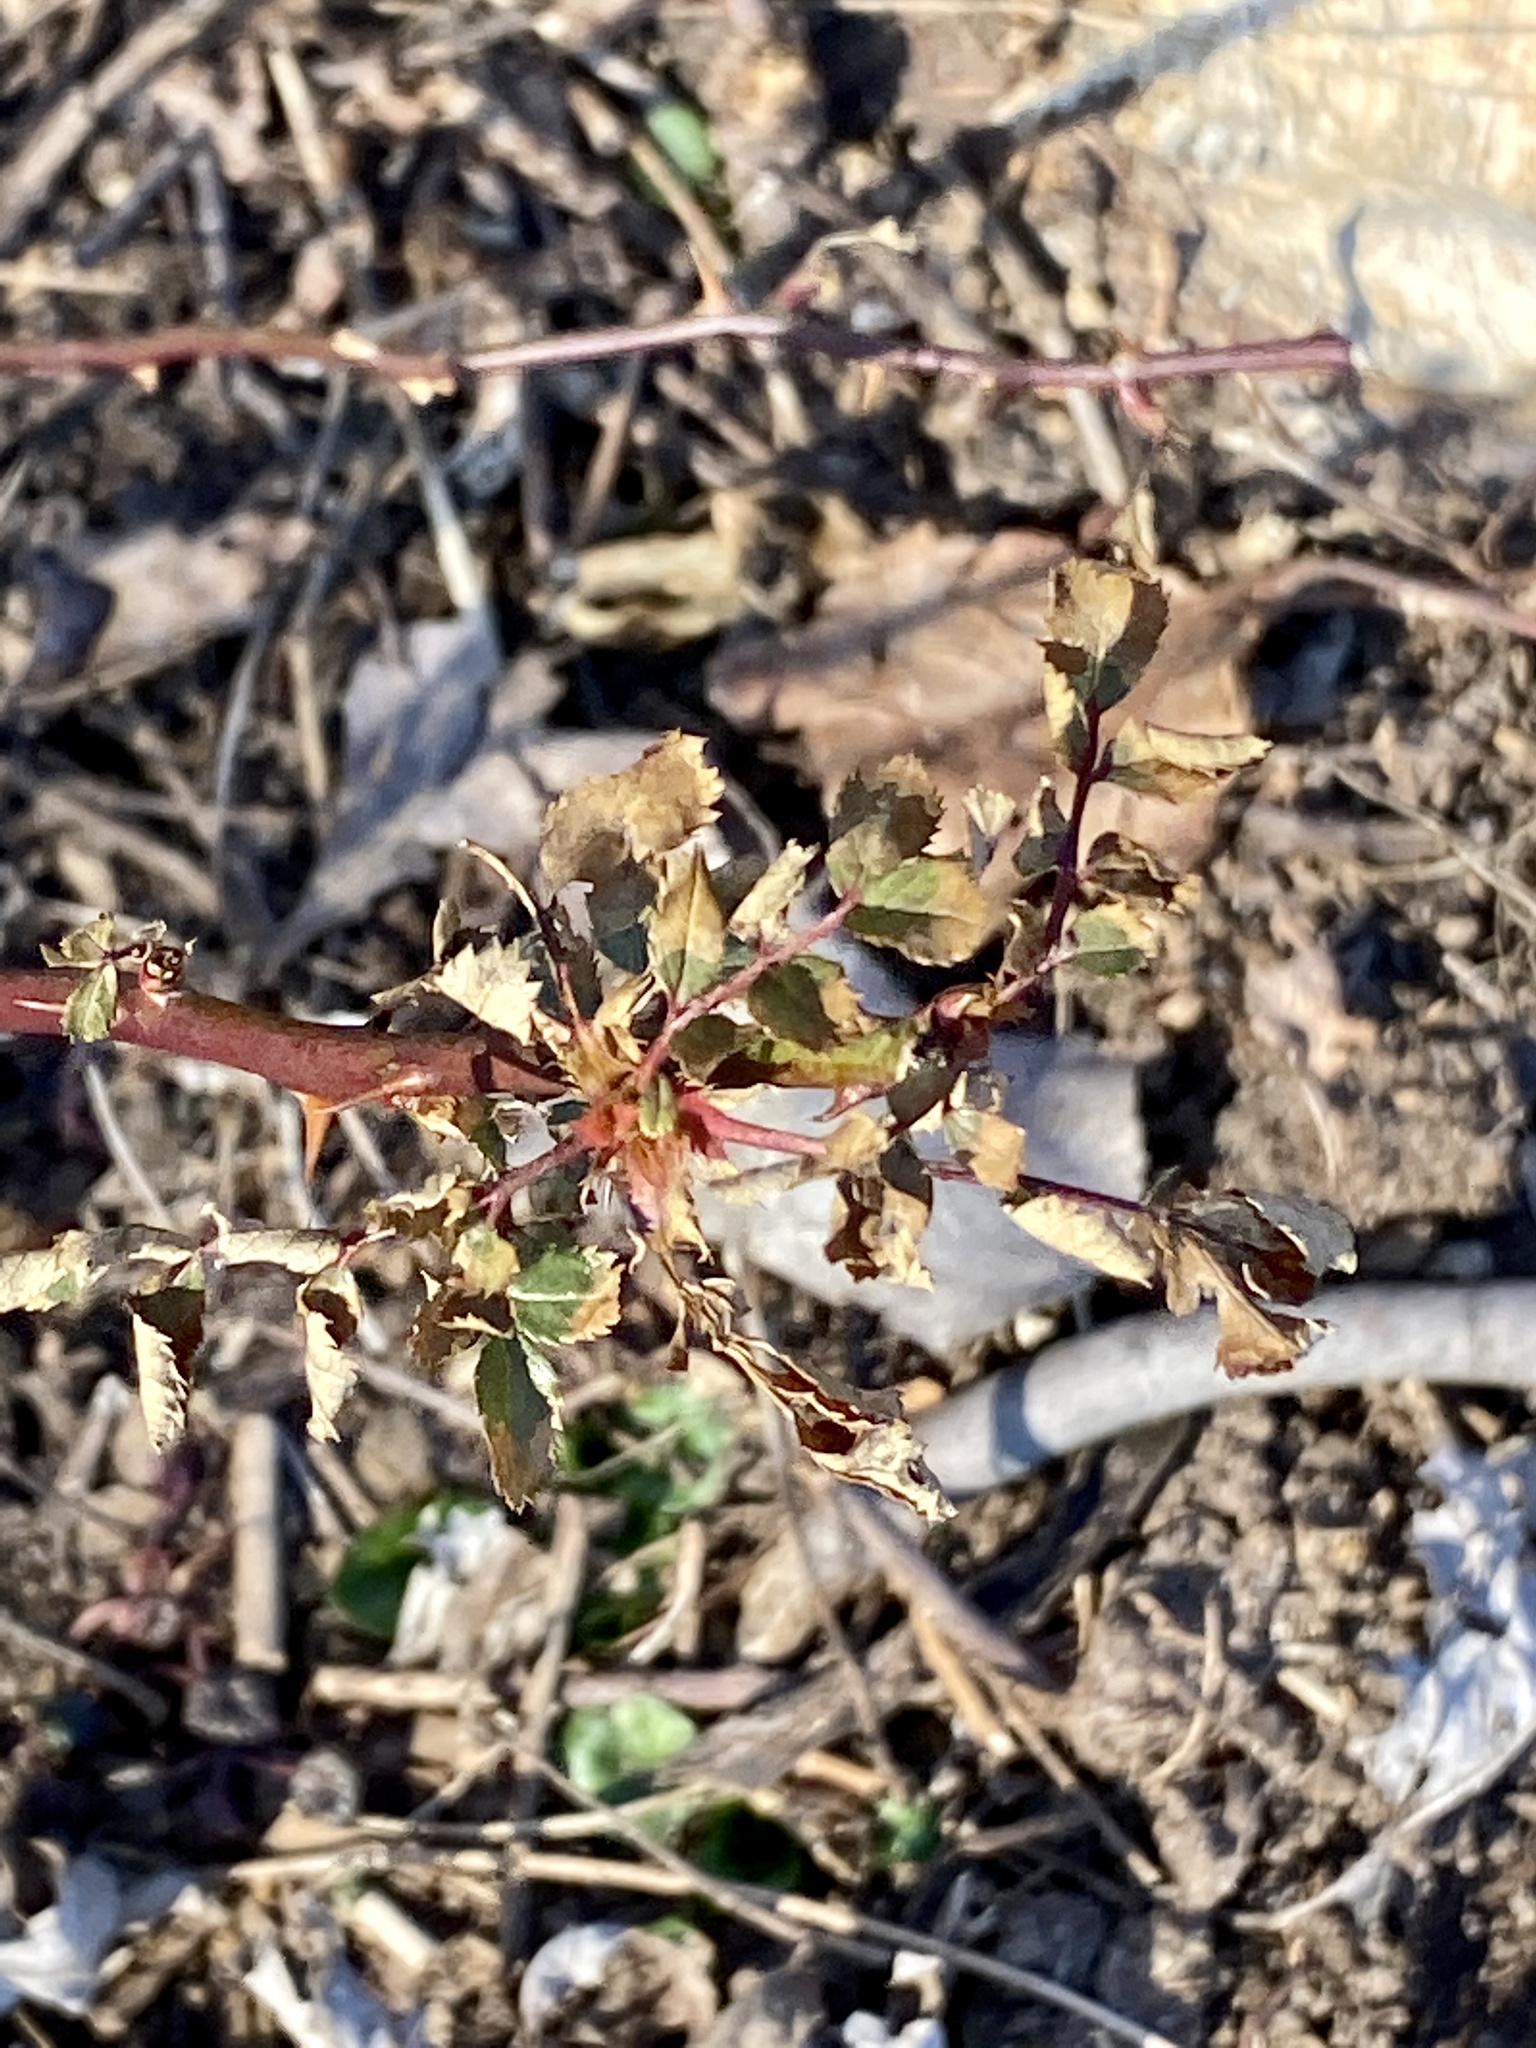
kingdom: Plantae
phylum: Tracheophyta
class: Magnoliopsida
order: Rosales
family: Rosaceae
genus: Rosa
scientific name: Rosa multiflora
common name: Multiflora rose
